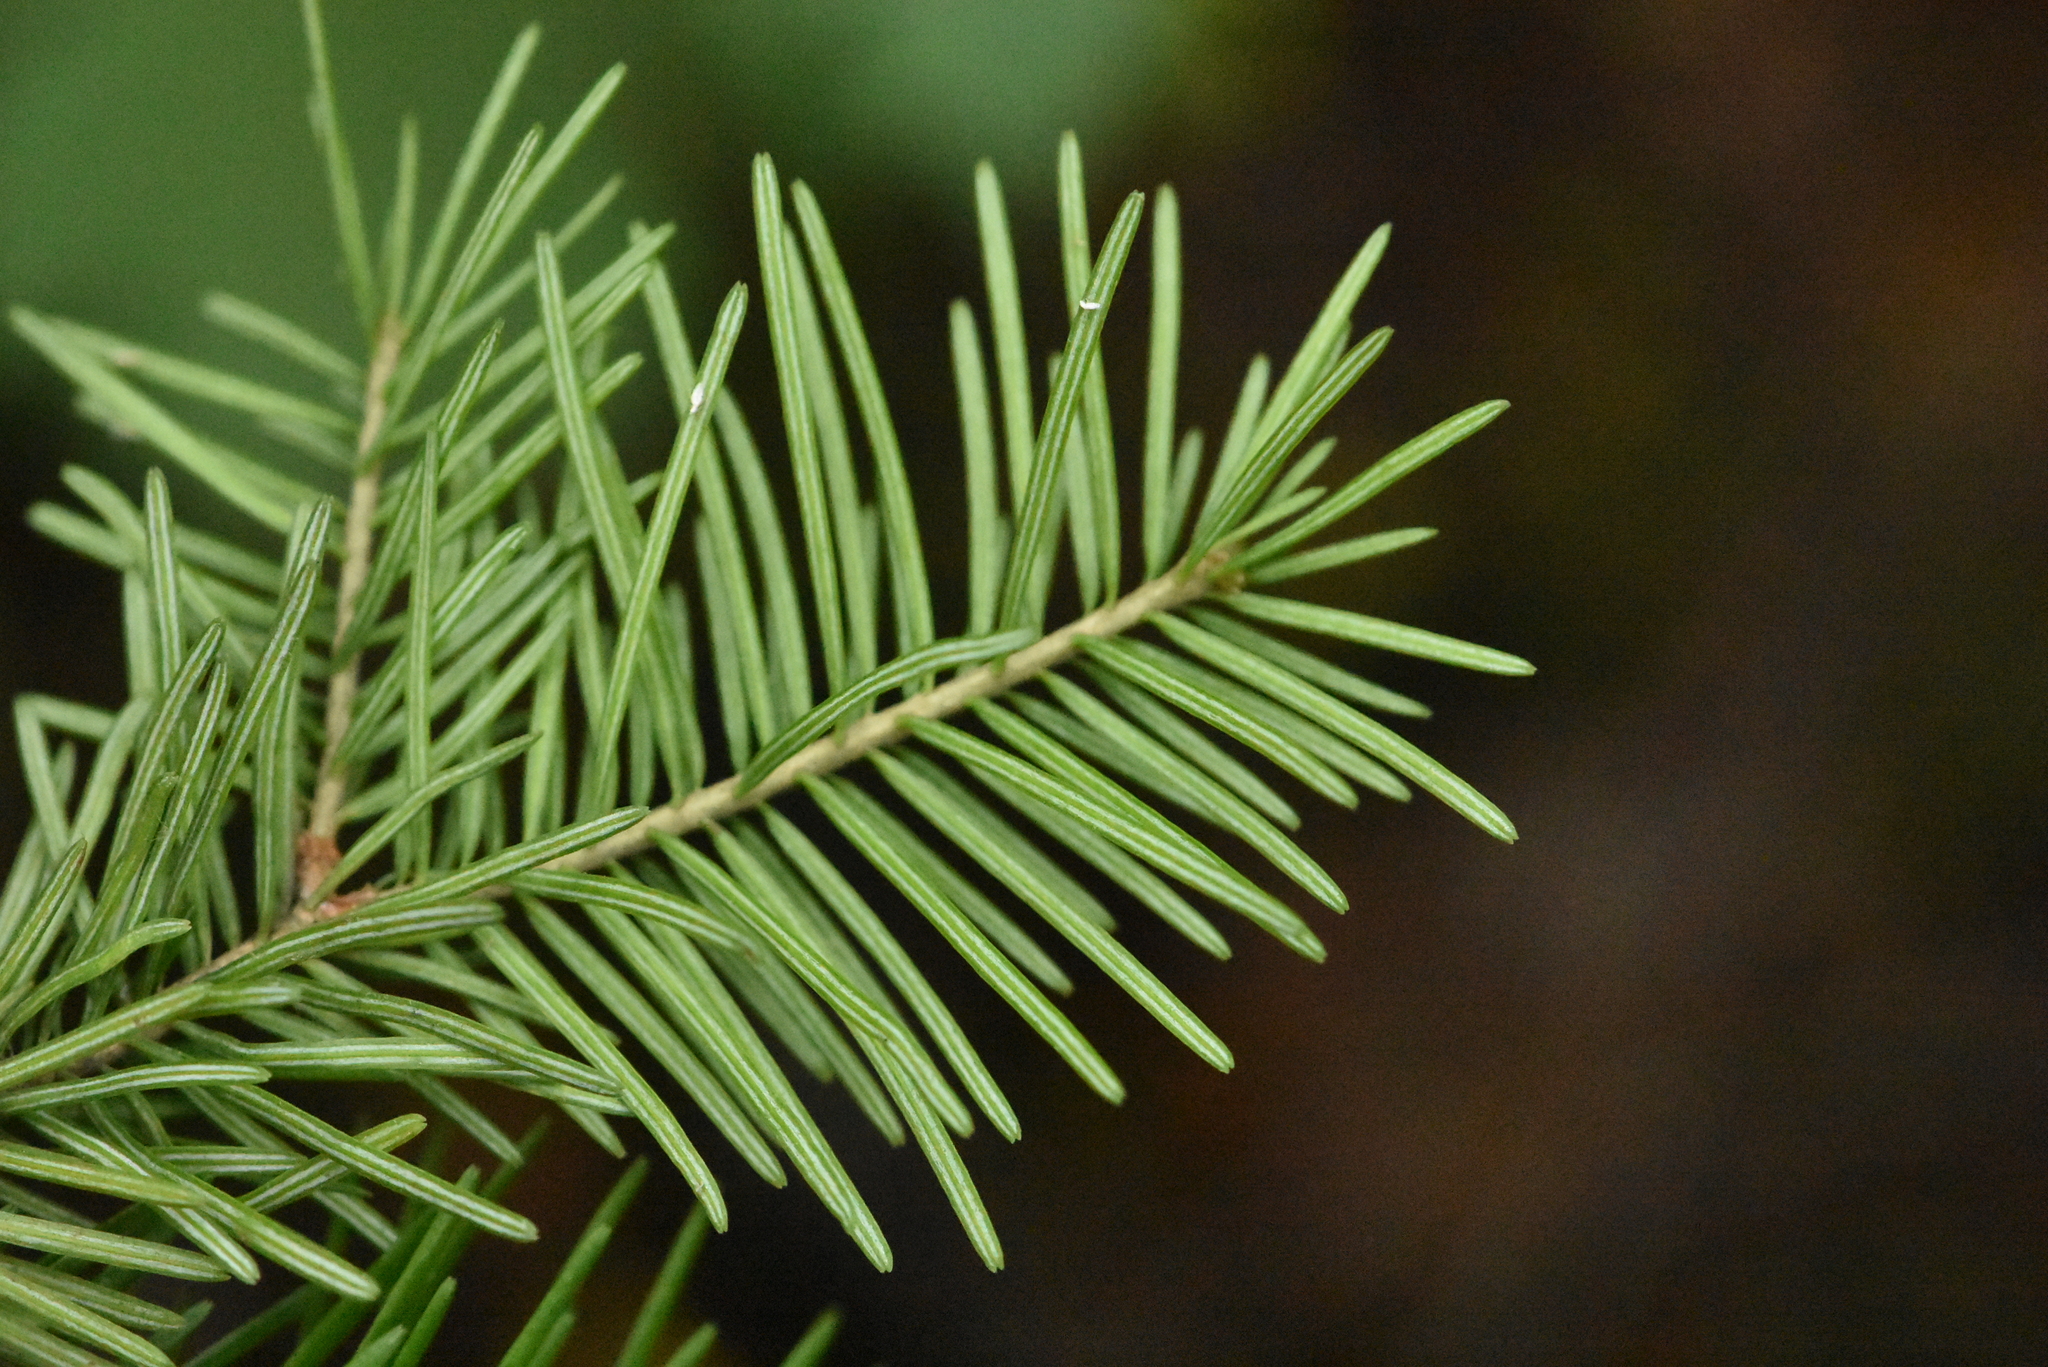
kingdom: Plantae
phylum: Tracheophyta
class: Pinopsida
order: Pinales
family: Pinaceae
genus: Abies
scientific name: Abies sibirica
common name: Siberian fir
